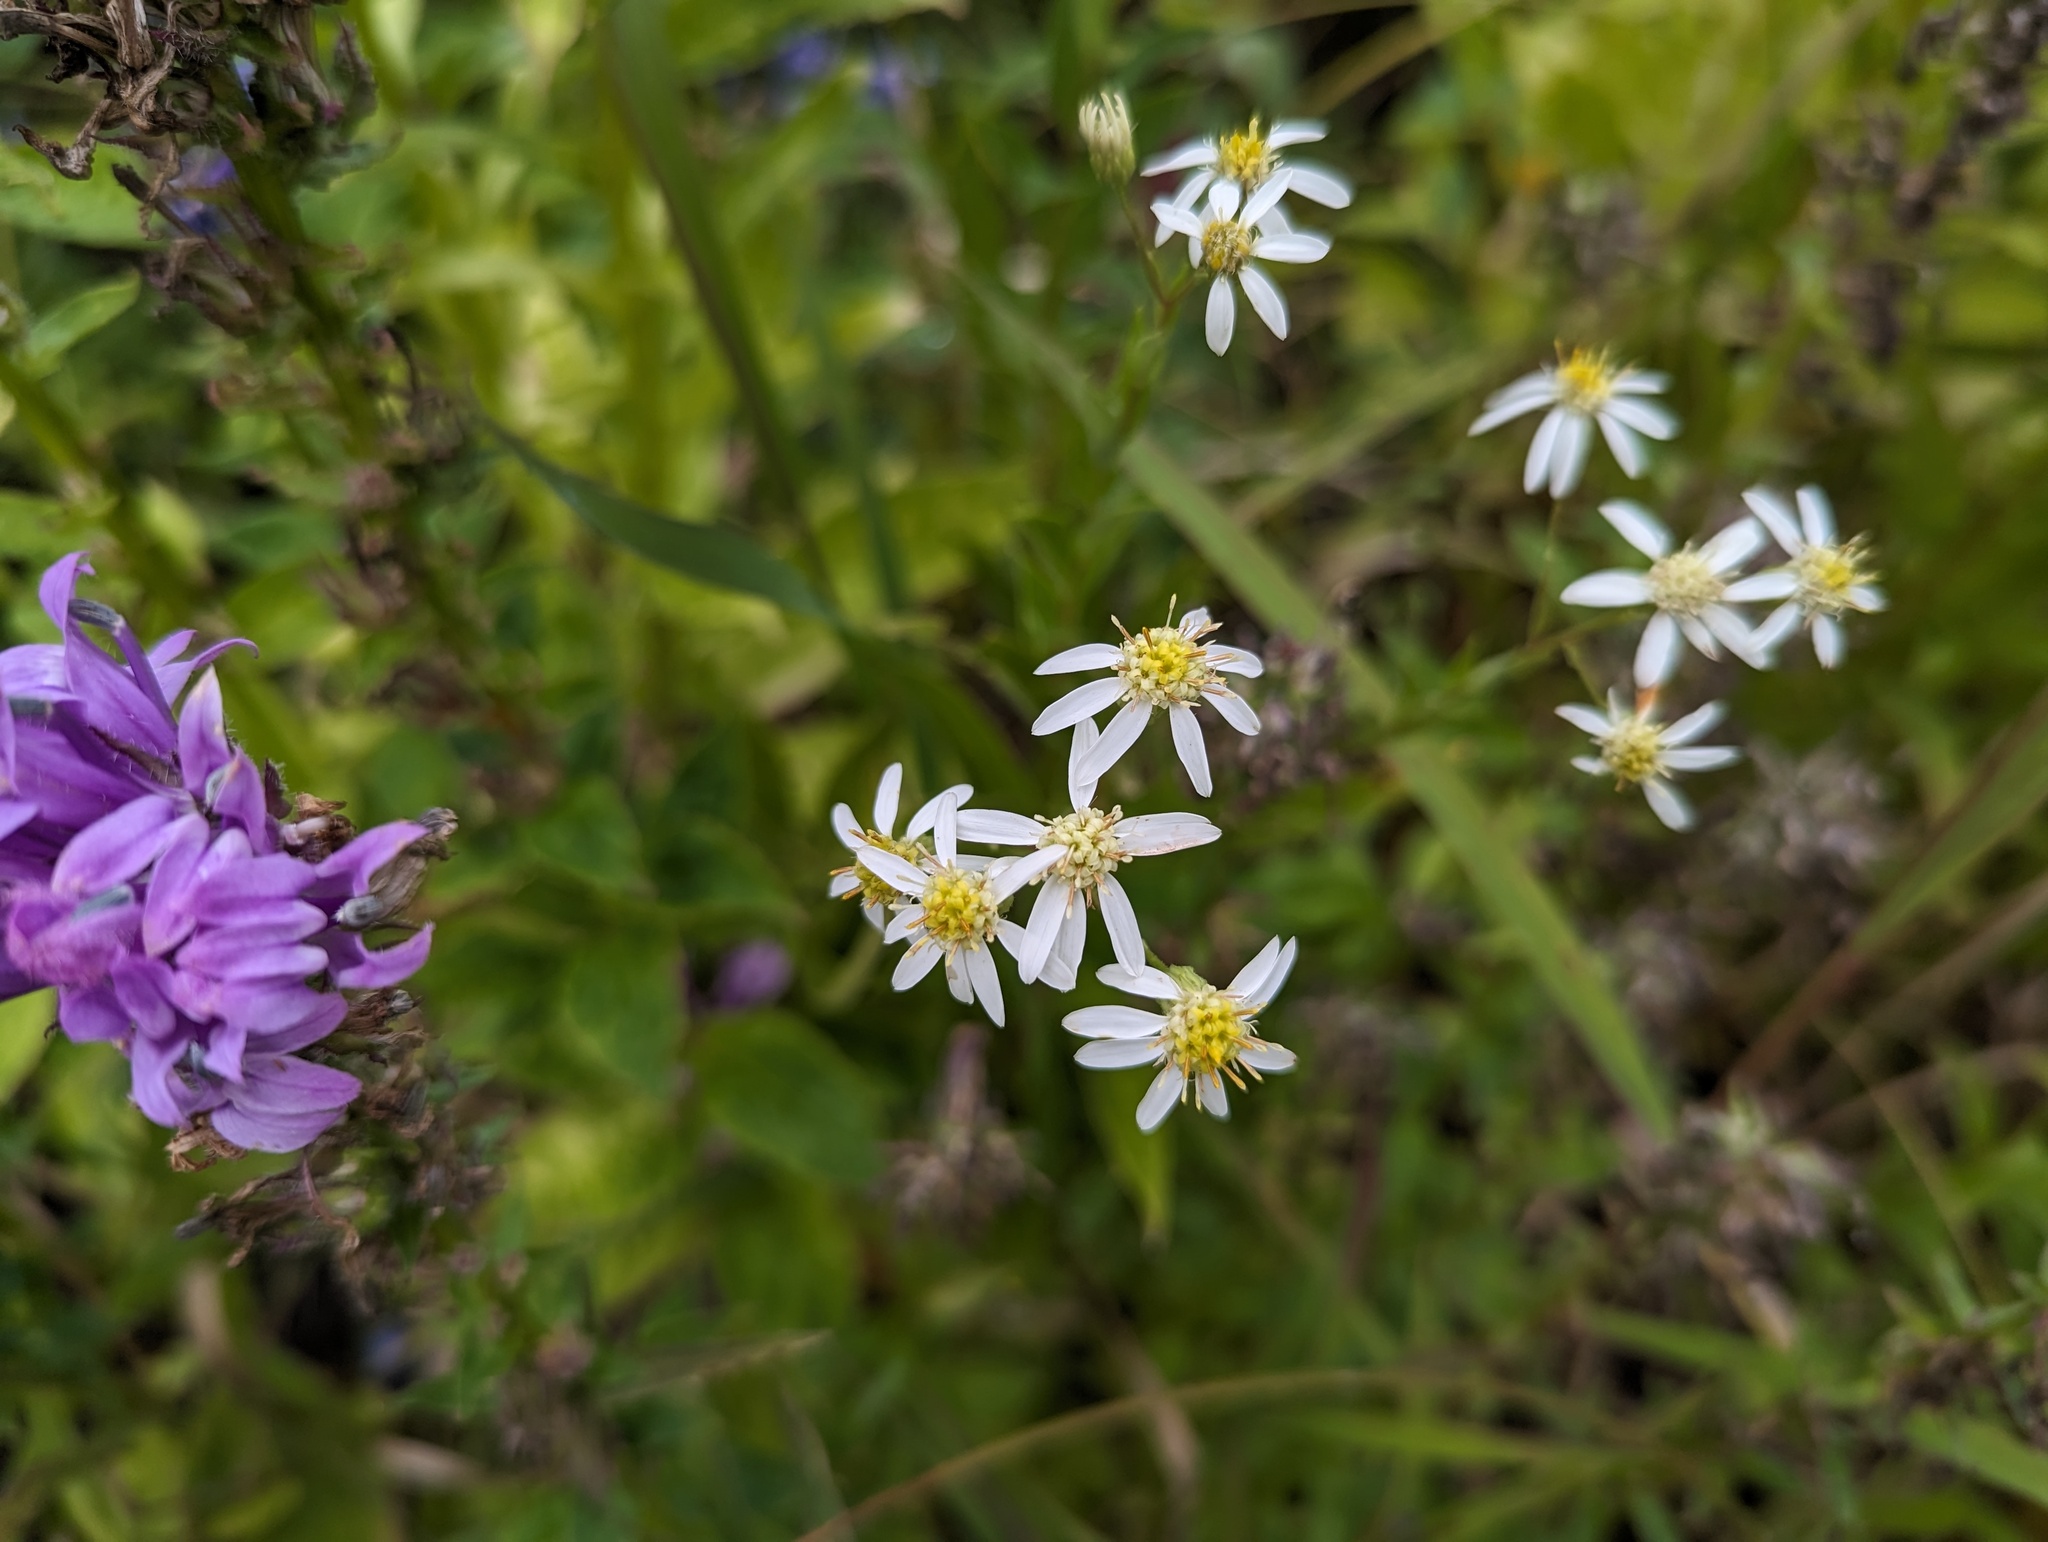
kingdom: Plantae
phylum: Tracheophyta
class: Magnoliopsida
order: Asterales
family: Asteraceae
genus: Doellingeria
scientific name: Doellingeria umbellata
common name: Flat-top white aster
